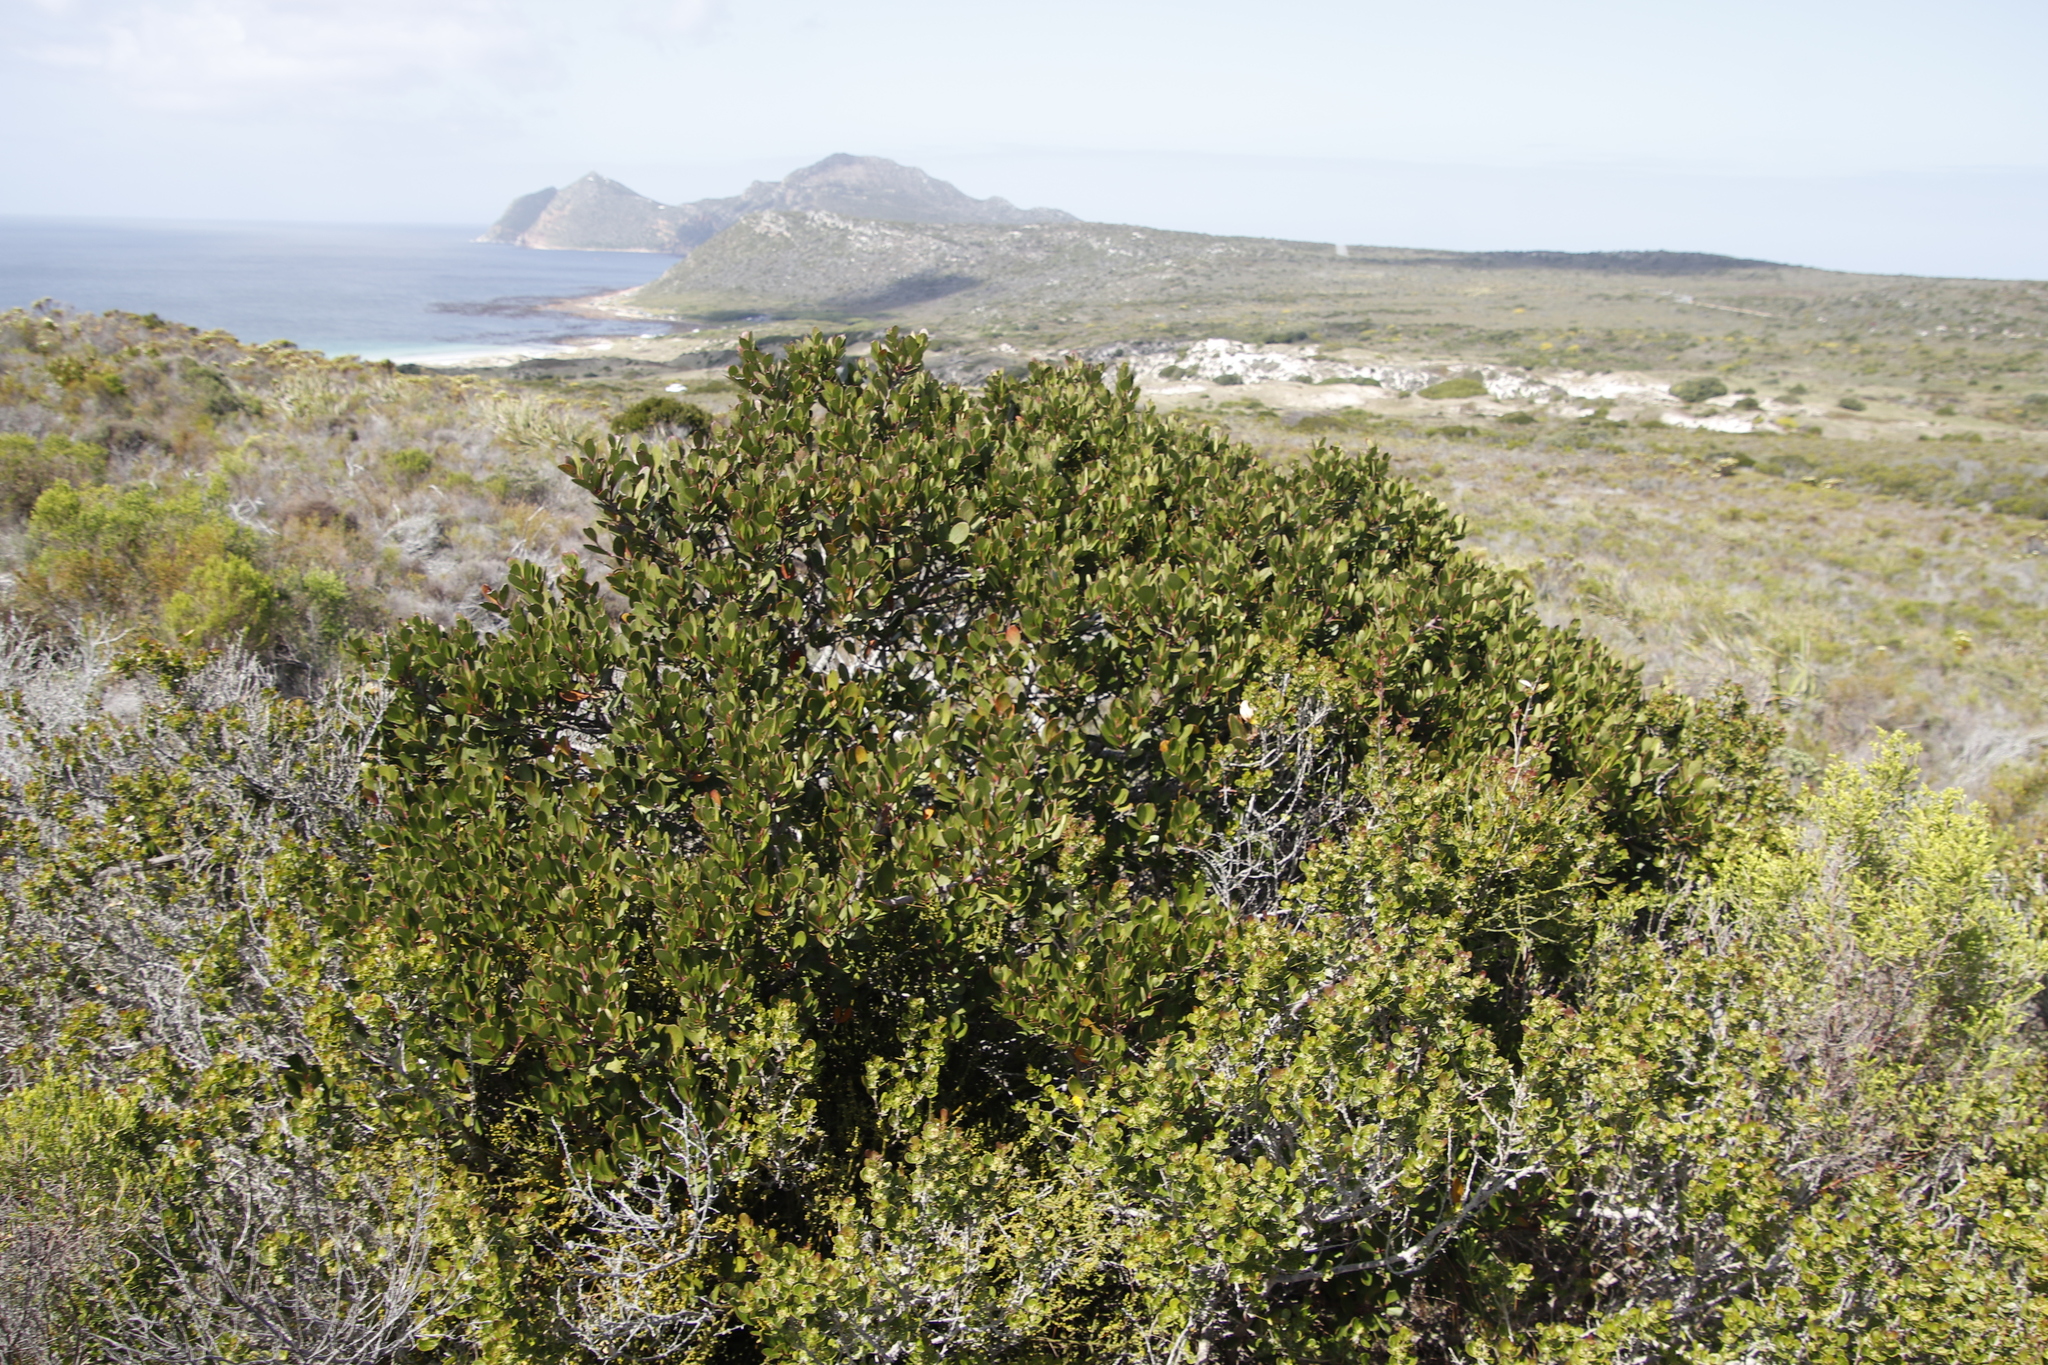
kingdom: Plantae
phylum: Tracheophyta
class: Magnoliopsida
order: Celastrales
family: Celastraceae
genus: Pterocelastrus
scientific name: Pterocelastrus tricuspidatus
